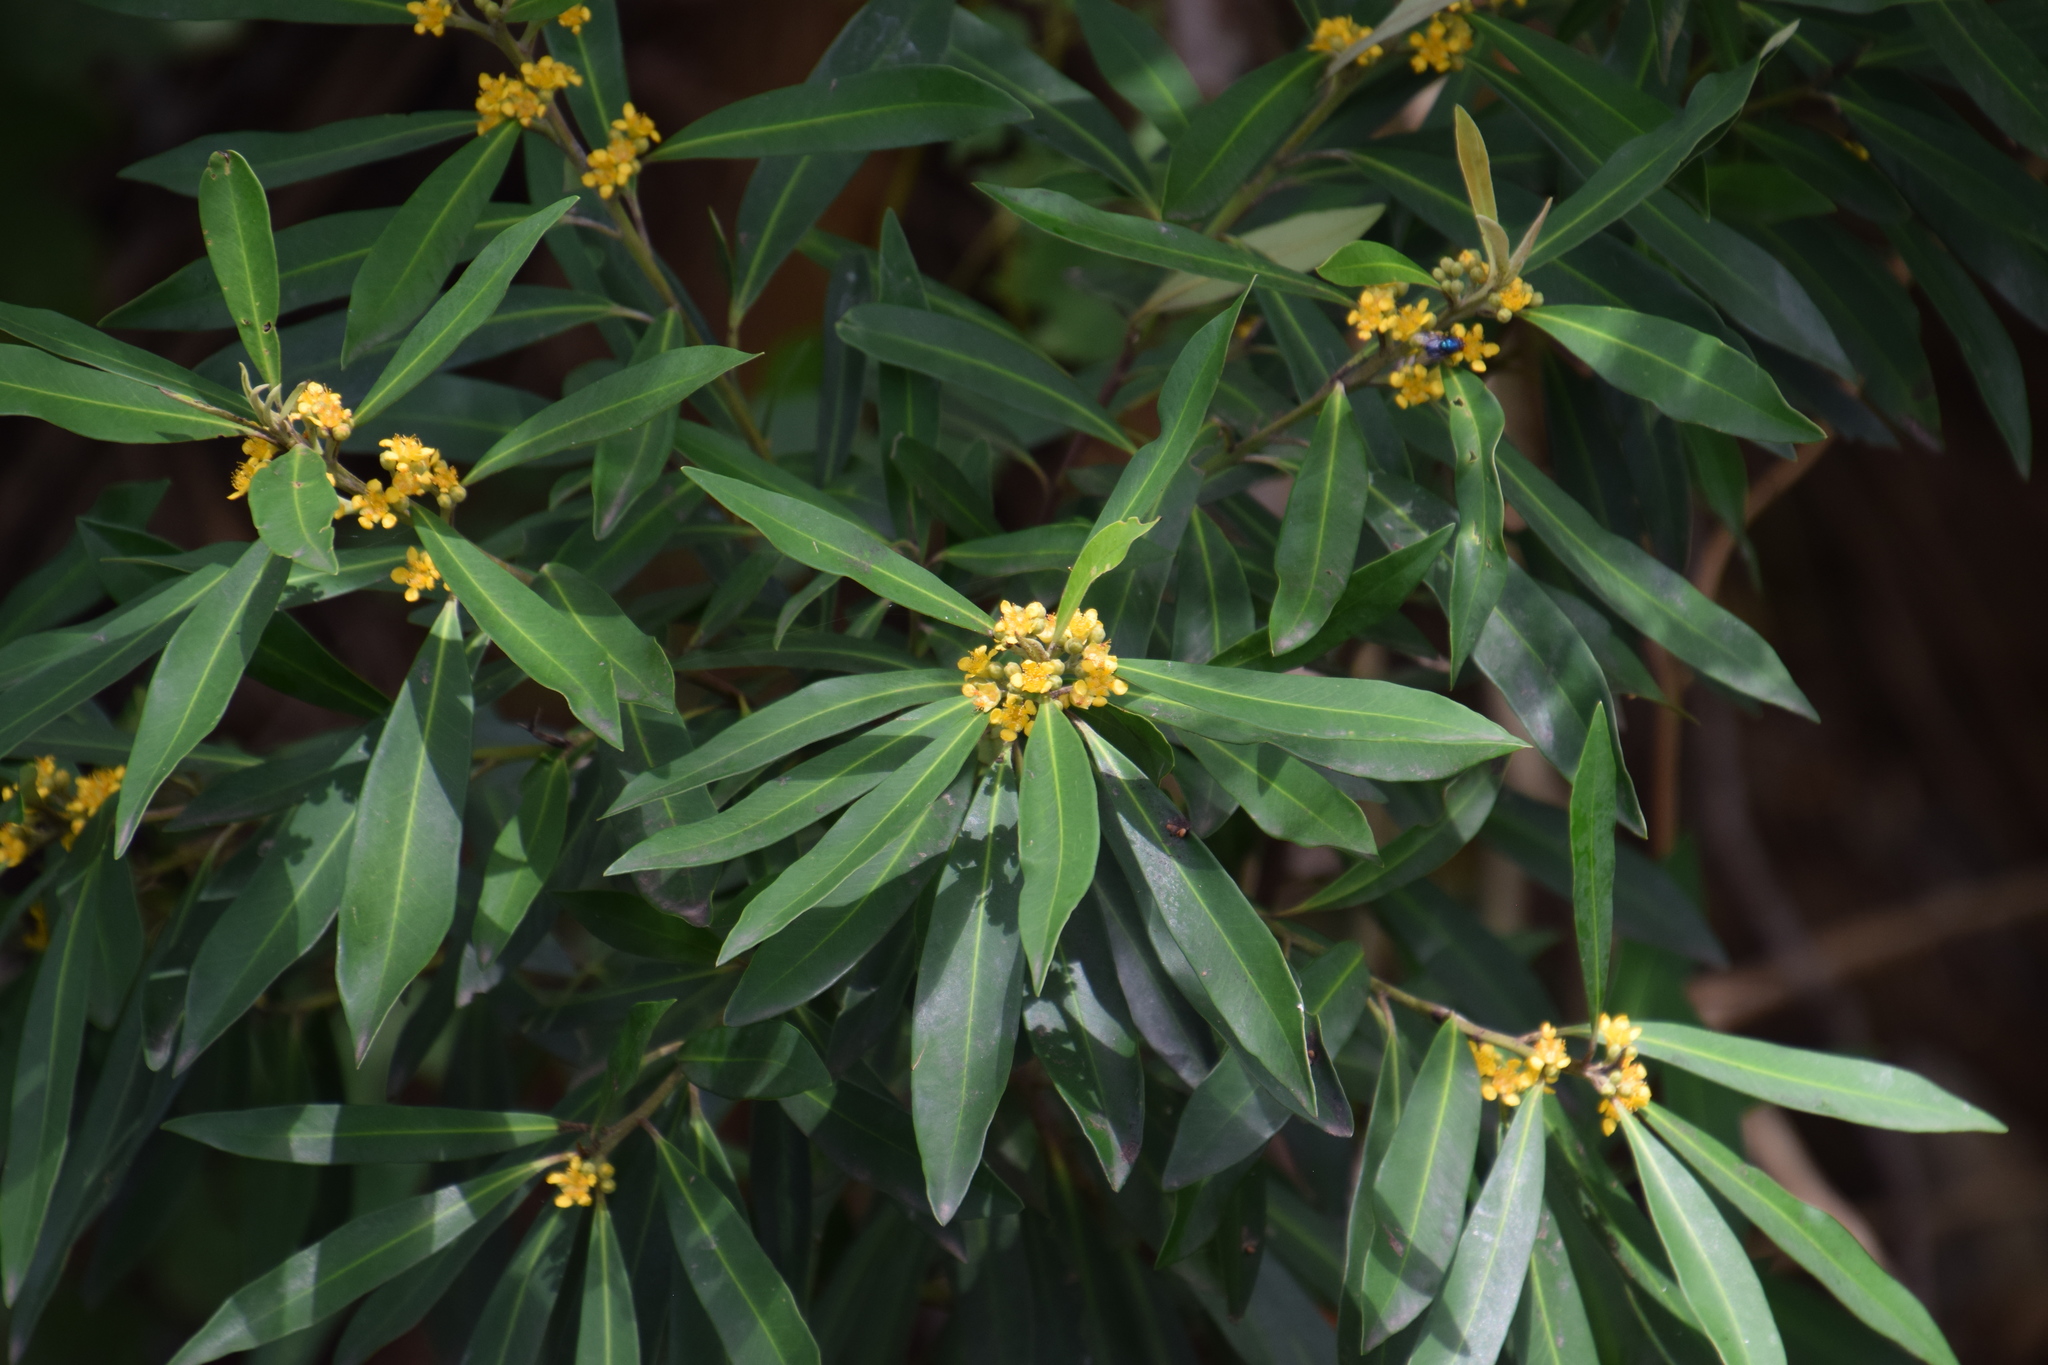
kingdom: Plantae
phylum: Tracheophyta
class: Magnoliopsida
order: Myrtales
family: Myrtaceae
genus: Tristaniopsis
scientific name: Tristaniopsis laurina
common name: Water-gum
